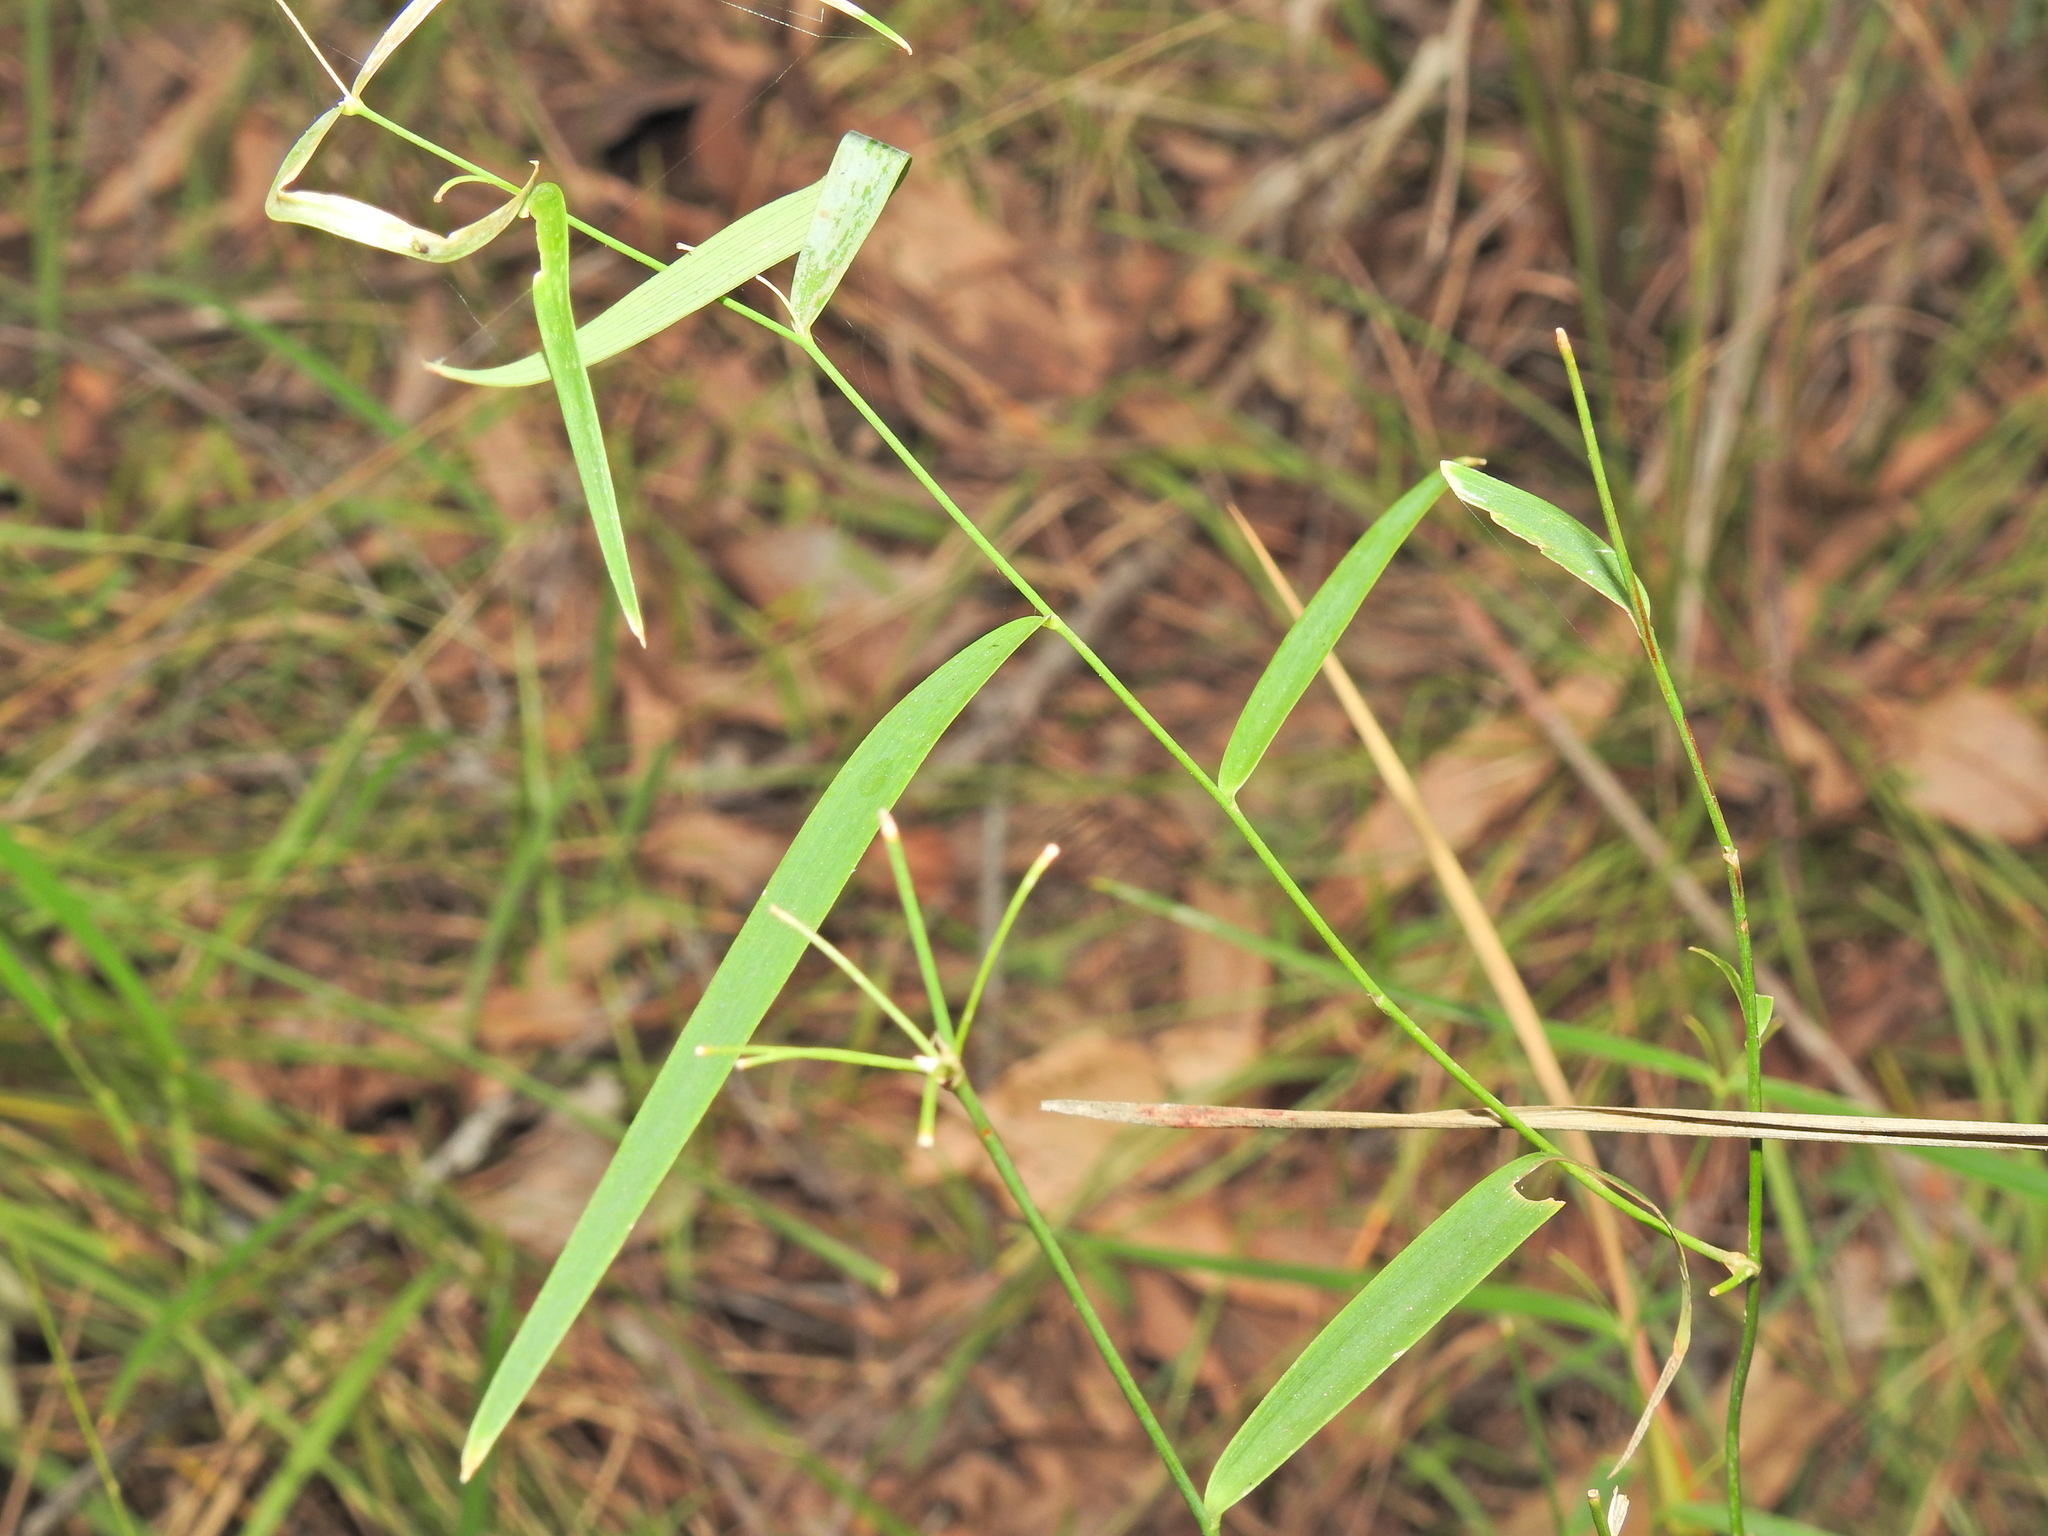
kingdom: Plantae
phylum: Tracheophyta
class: Liliopsida
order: Asparagales
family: Asparagaceae
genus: Eustrephus
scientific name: Eustrephus latifolius
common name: Orangevine
